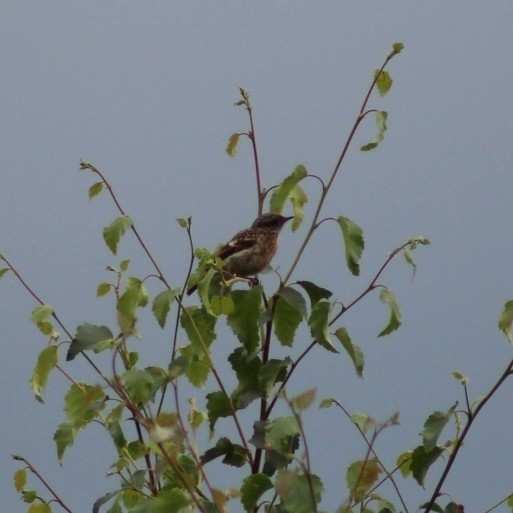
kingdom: Animalia
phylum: Chordata
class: Aves
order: Passeriformes
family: Muscicapidae
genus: Saxicola
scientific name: Saxicola rubicola
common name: European stonechat
